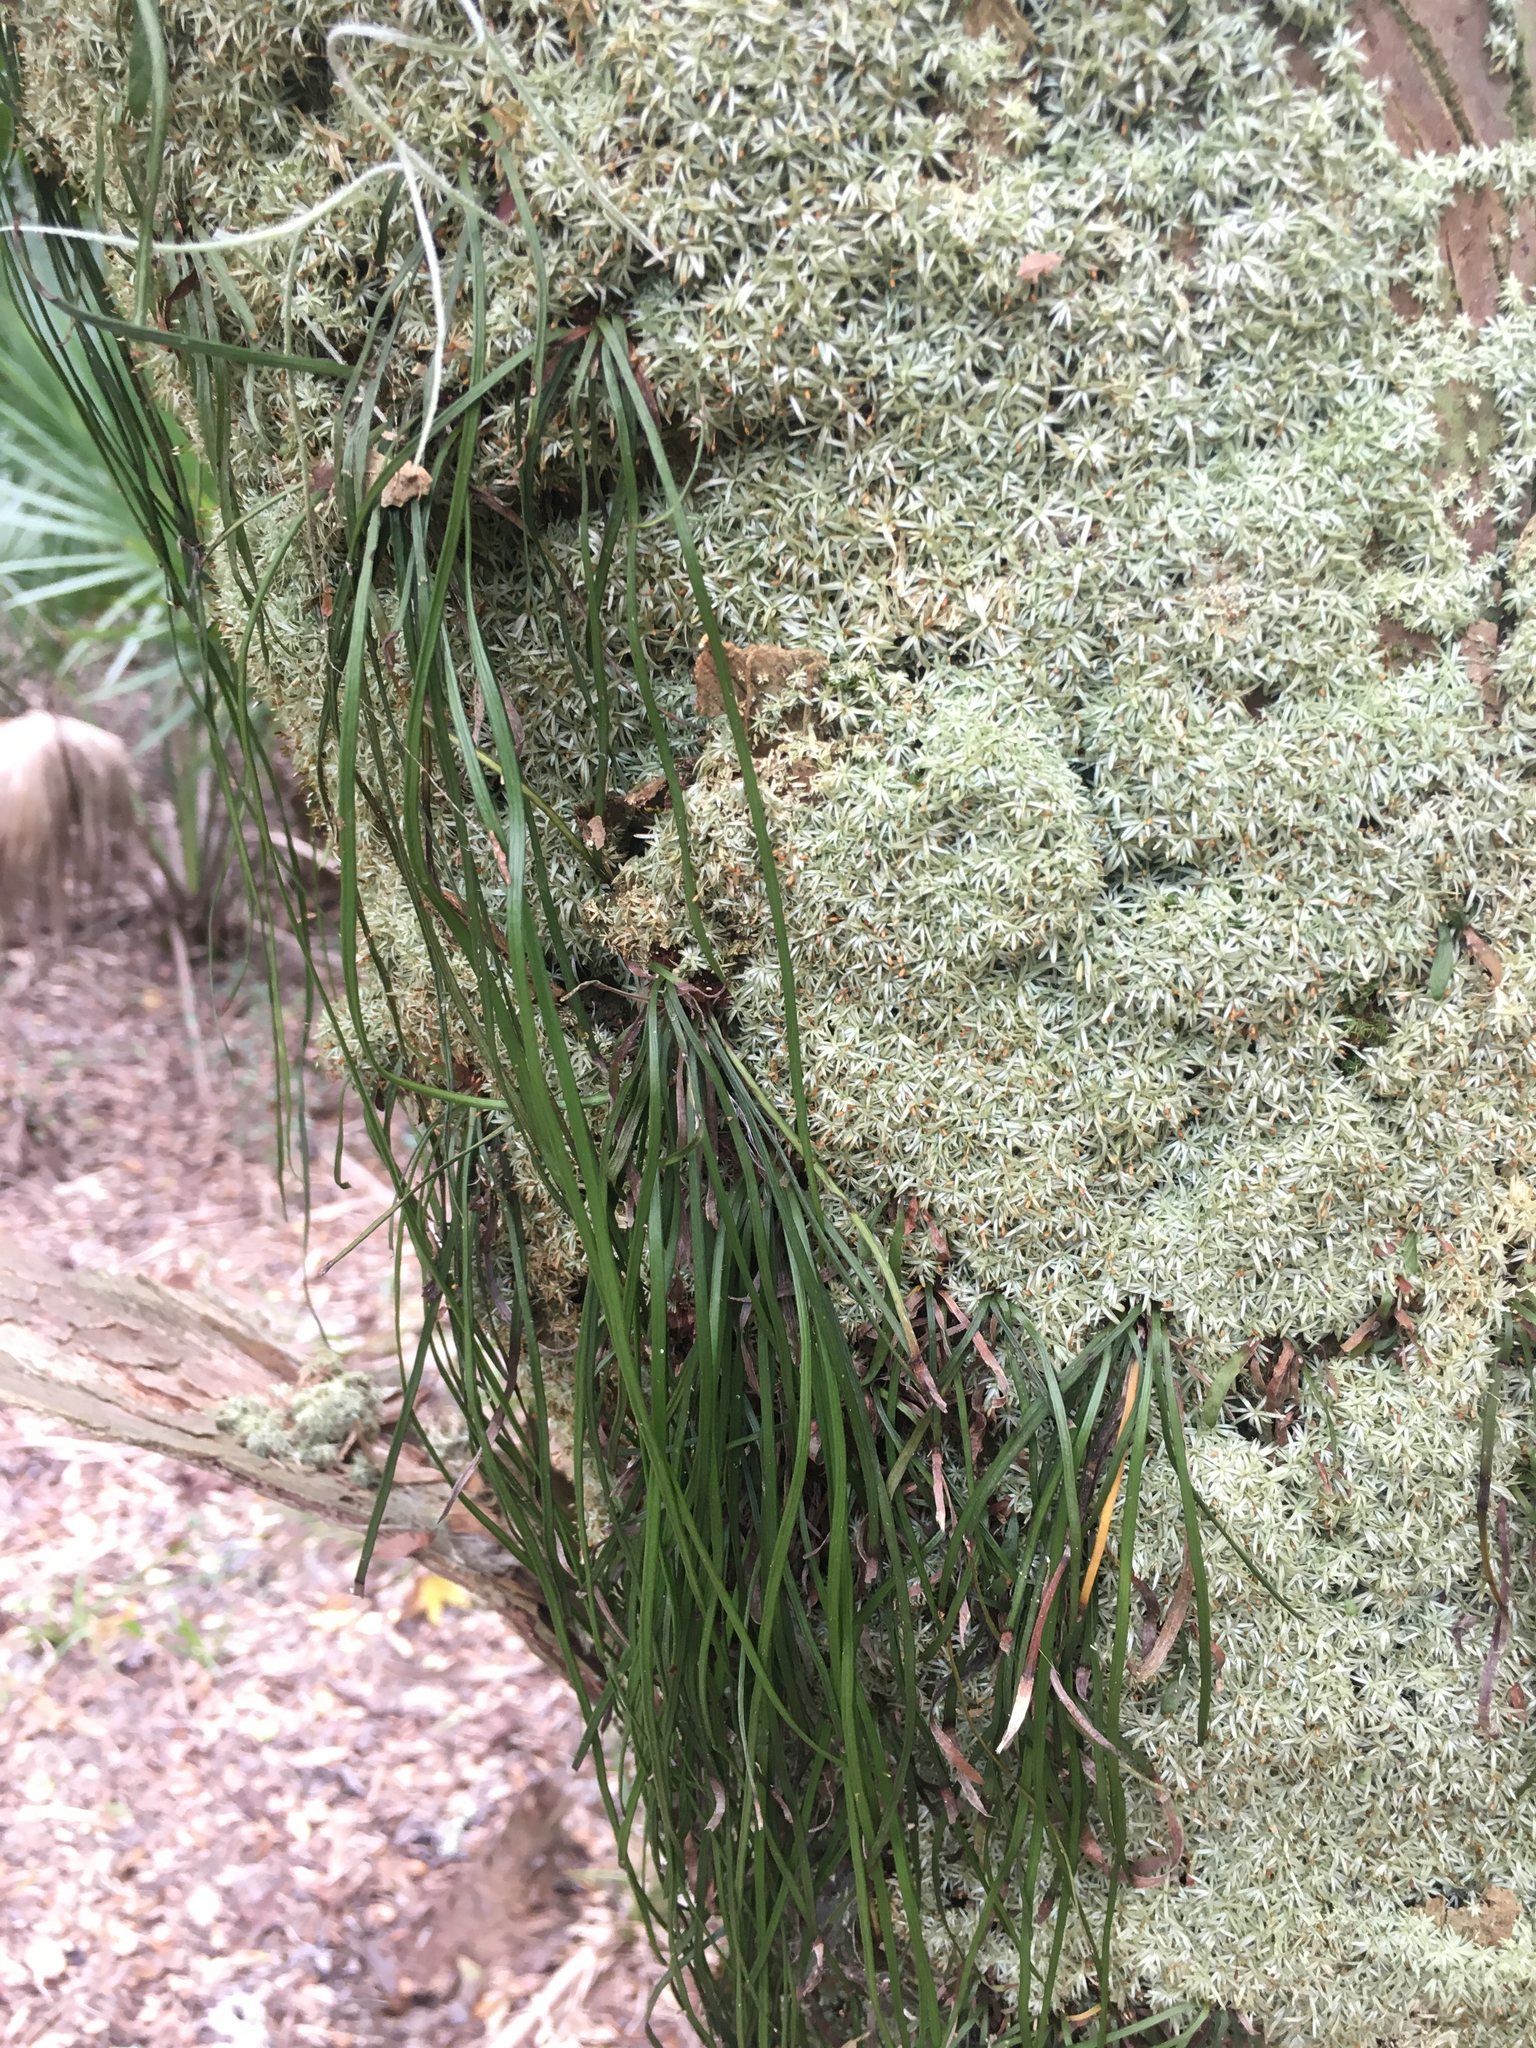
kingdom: Plantae
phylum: Tracheophyta
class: Polypodiopsida
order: Polypodiales
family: Pteridaceae
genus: Vittaria
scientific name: Vittaria lineata
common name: Shoestring fern
